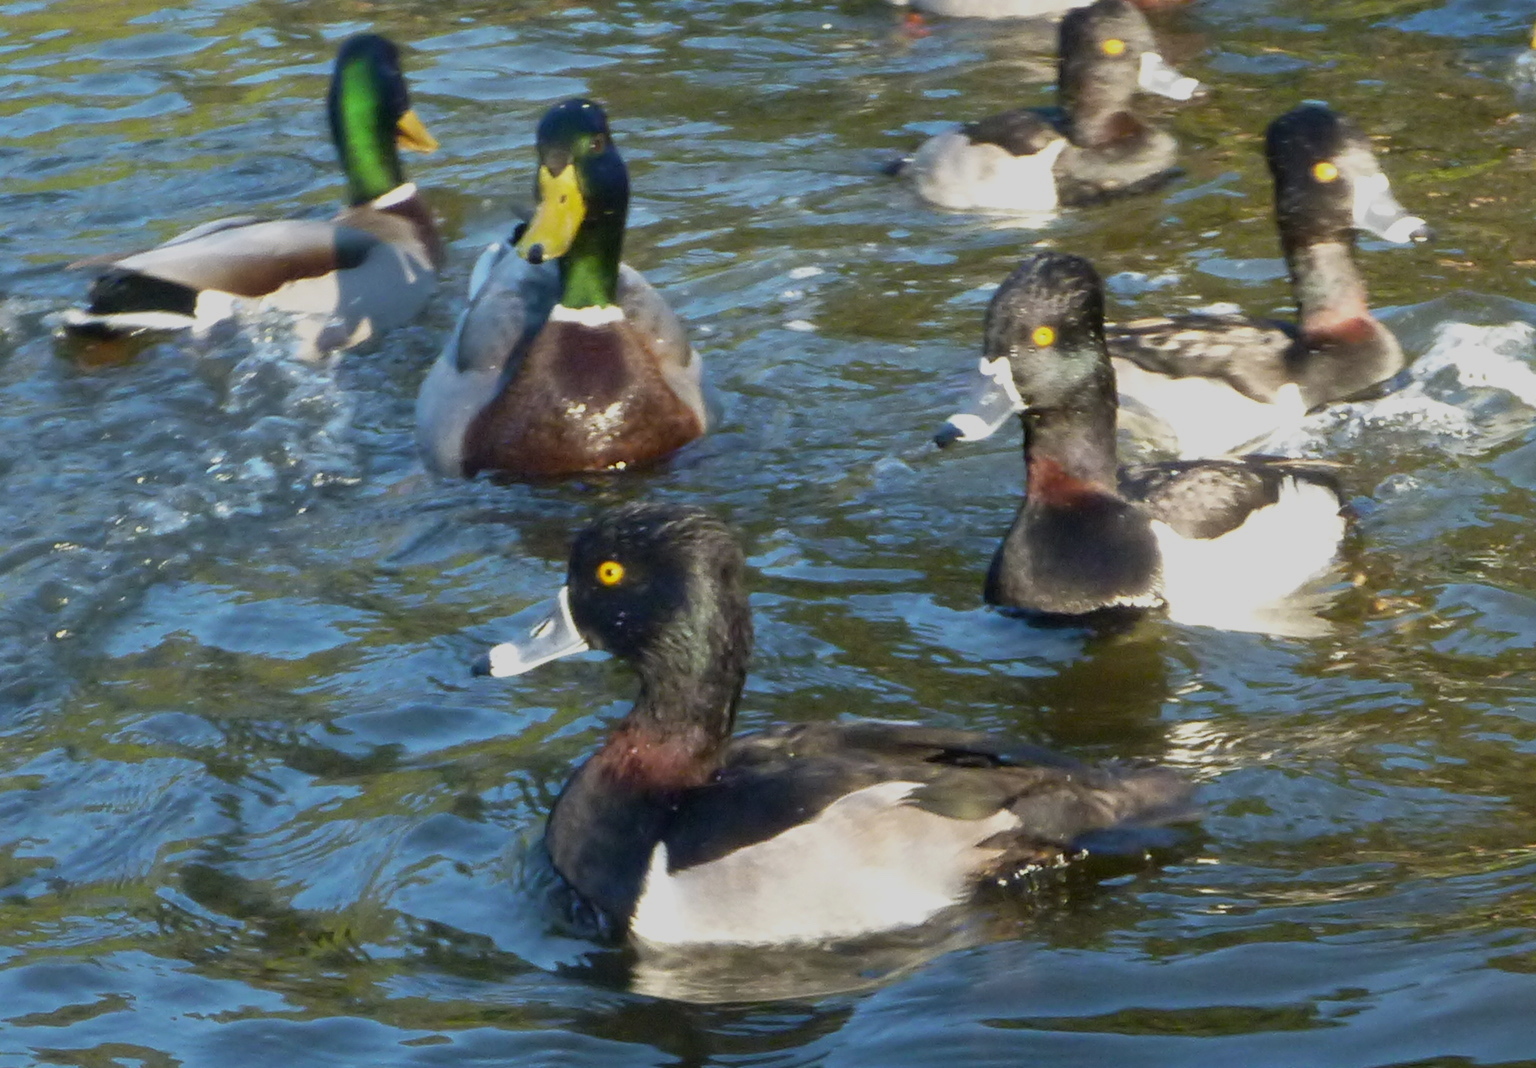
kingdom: Animalia
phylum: Chordata
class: Aves
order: Anseriformes
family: Anatidae
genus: Aythya
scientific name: Aythya collaris
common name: Ring-necked duck
